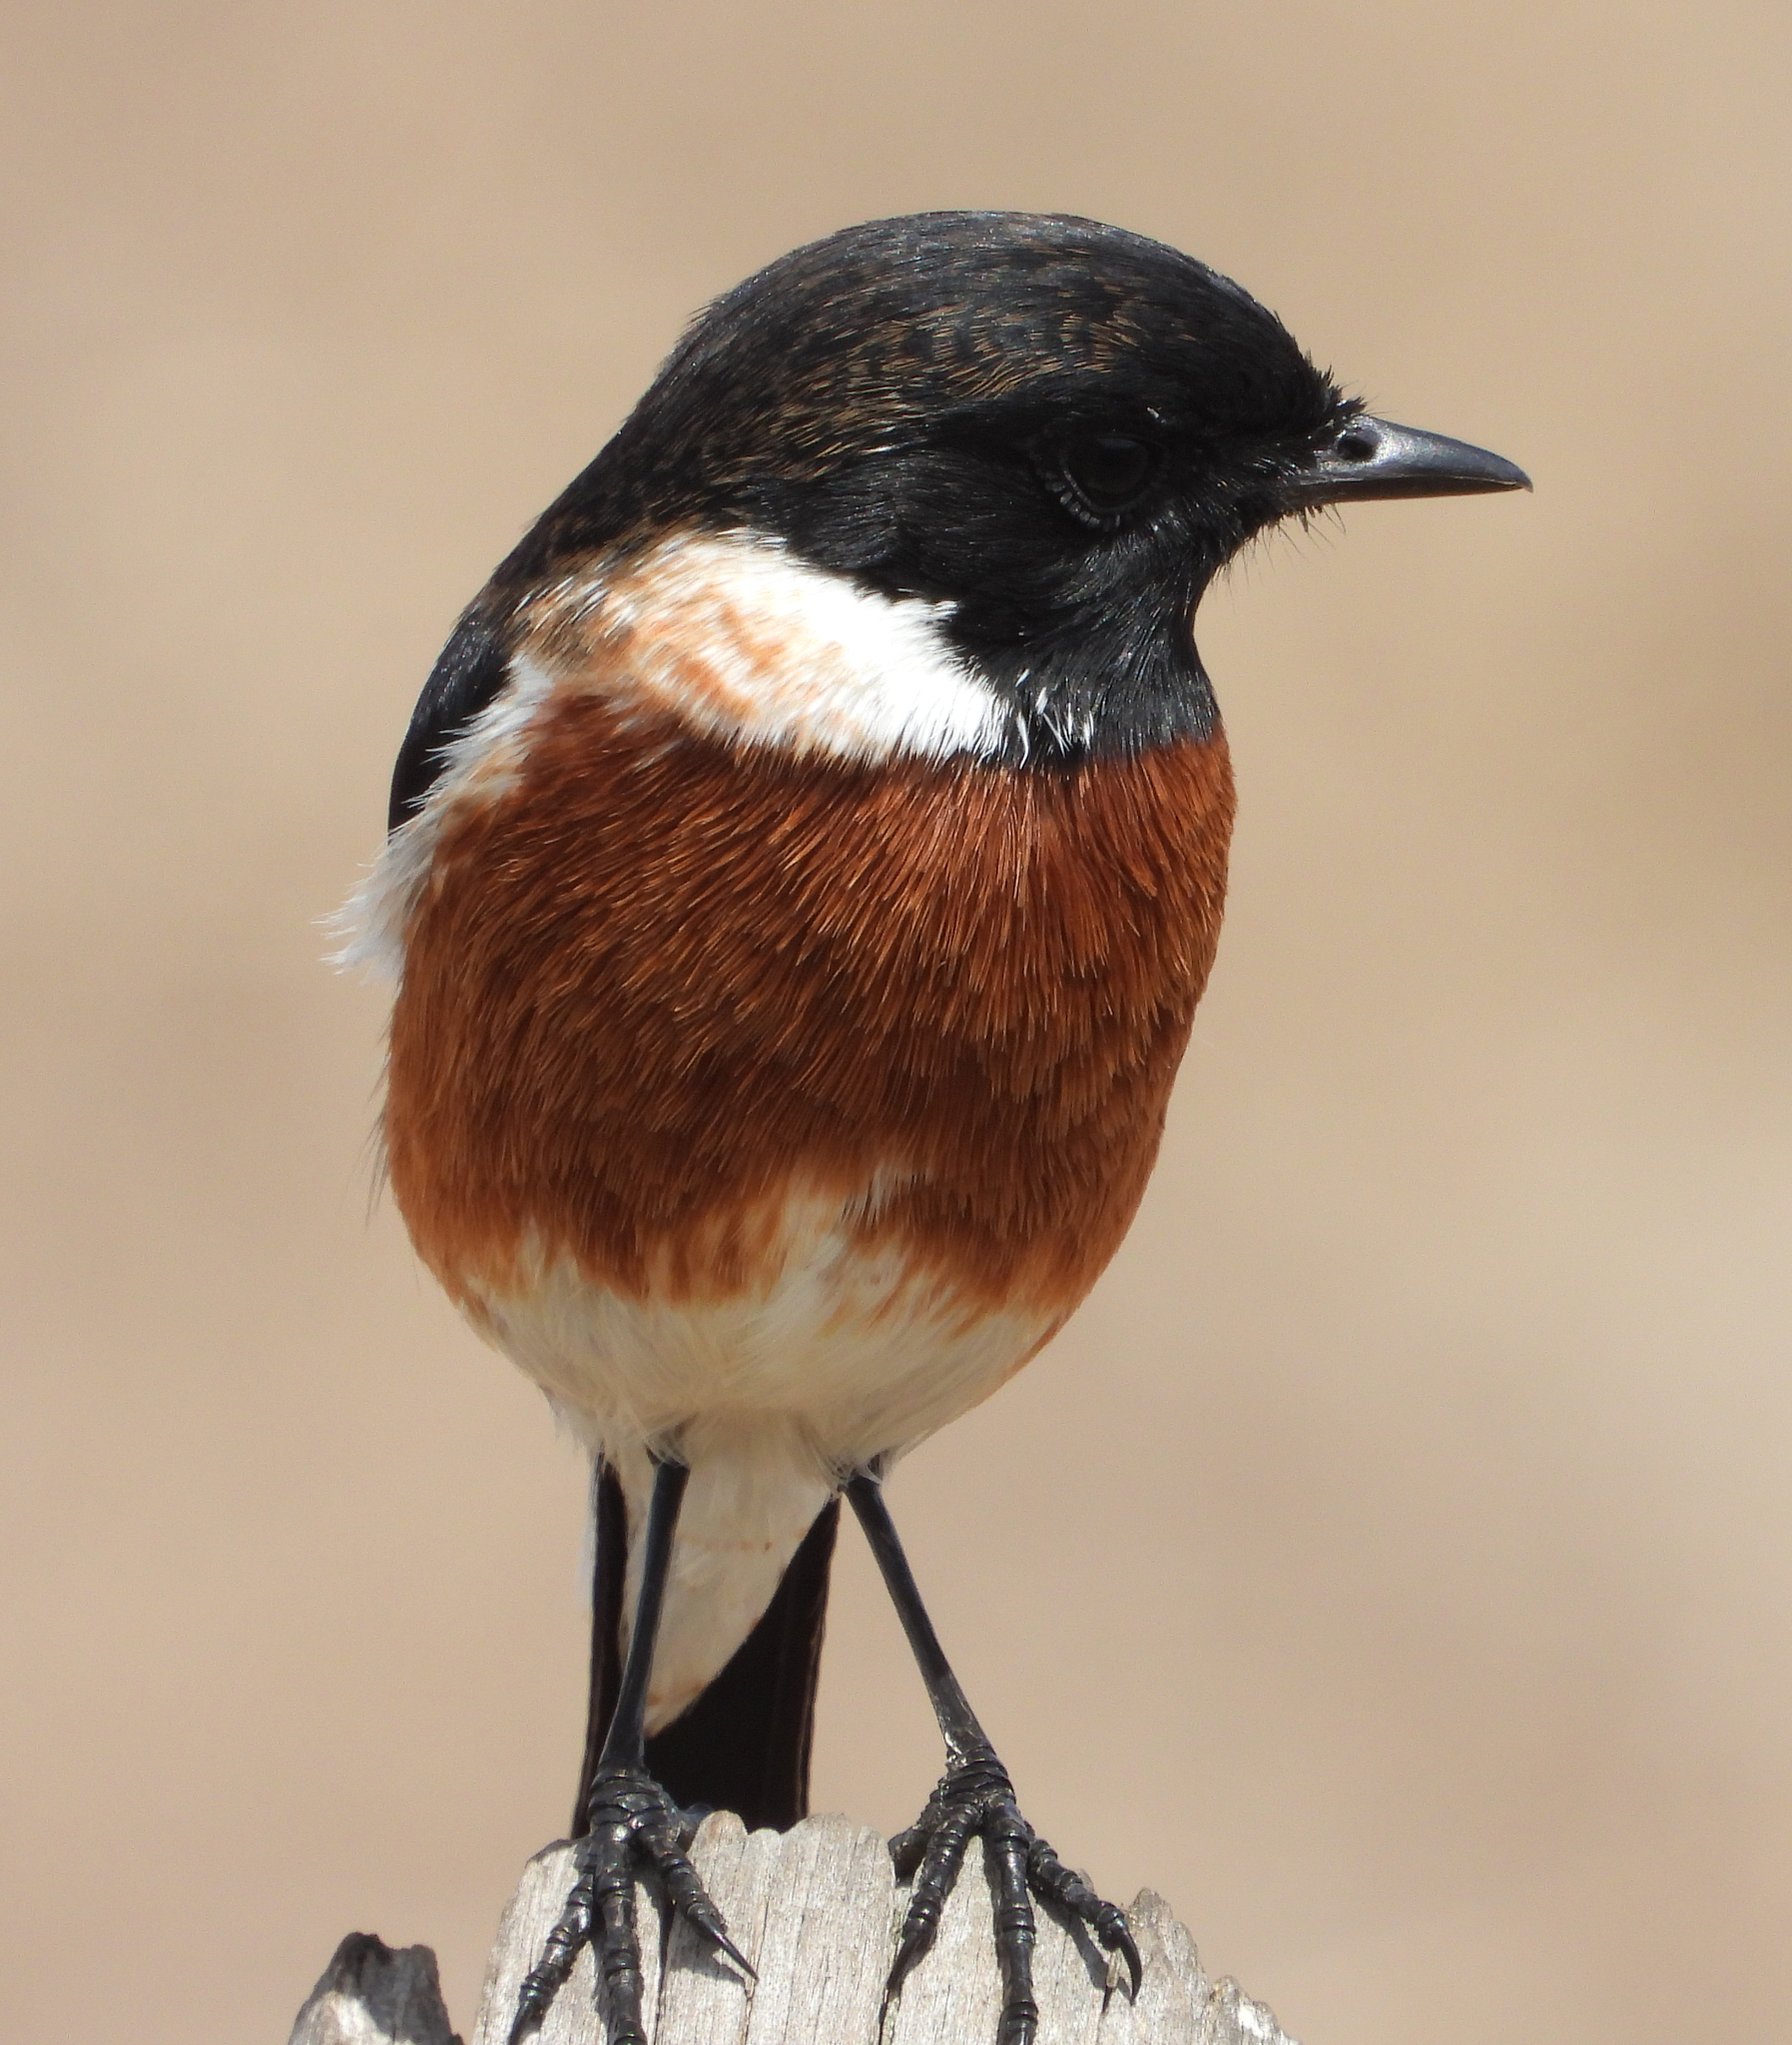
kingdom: Animalia
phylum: Chordata
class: Aves
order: Passeriformes
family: Muscicapidae
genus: Saxicola
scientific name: Saxicola torquatus
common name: African stonechat
